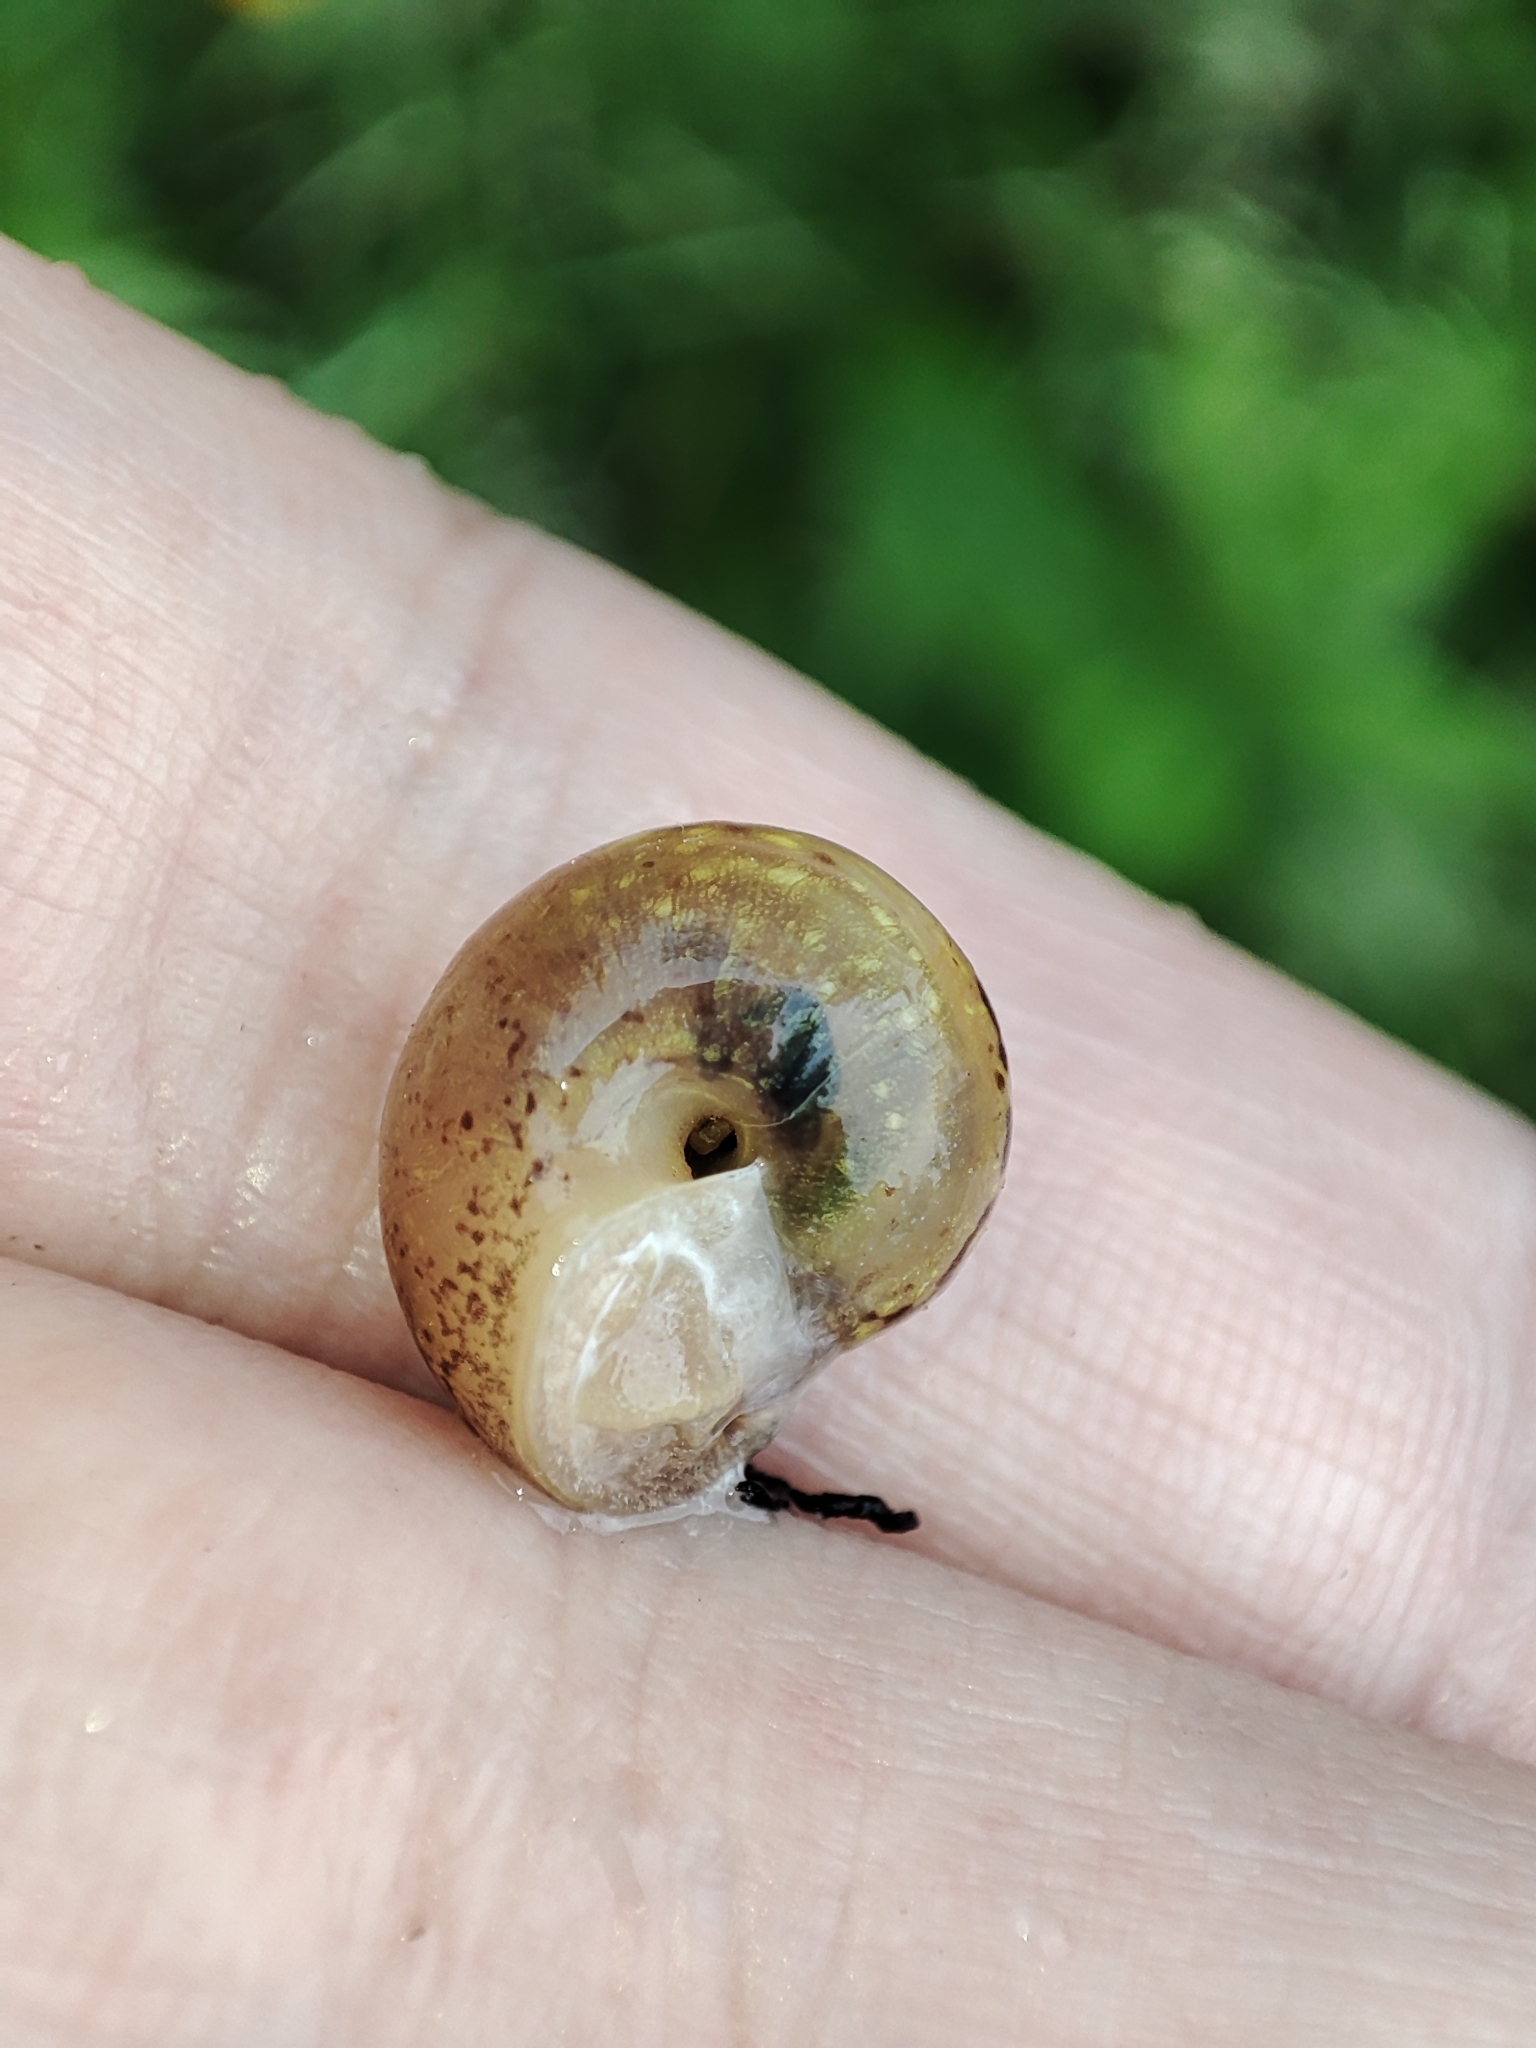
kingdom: Animalia
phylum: Mollusca
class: Gastropoda
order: Stylommatophora
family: Camaenidae
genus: Fruticicola
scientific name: Fruticicola fruticum
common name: Bush snail
